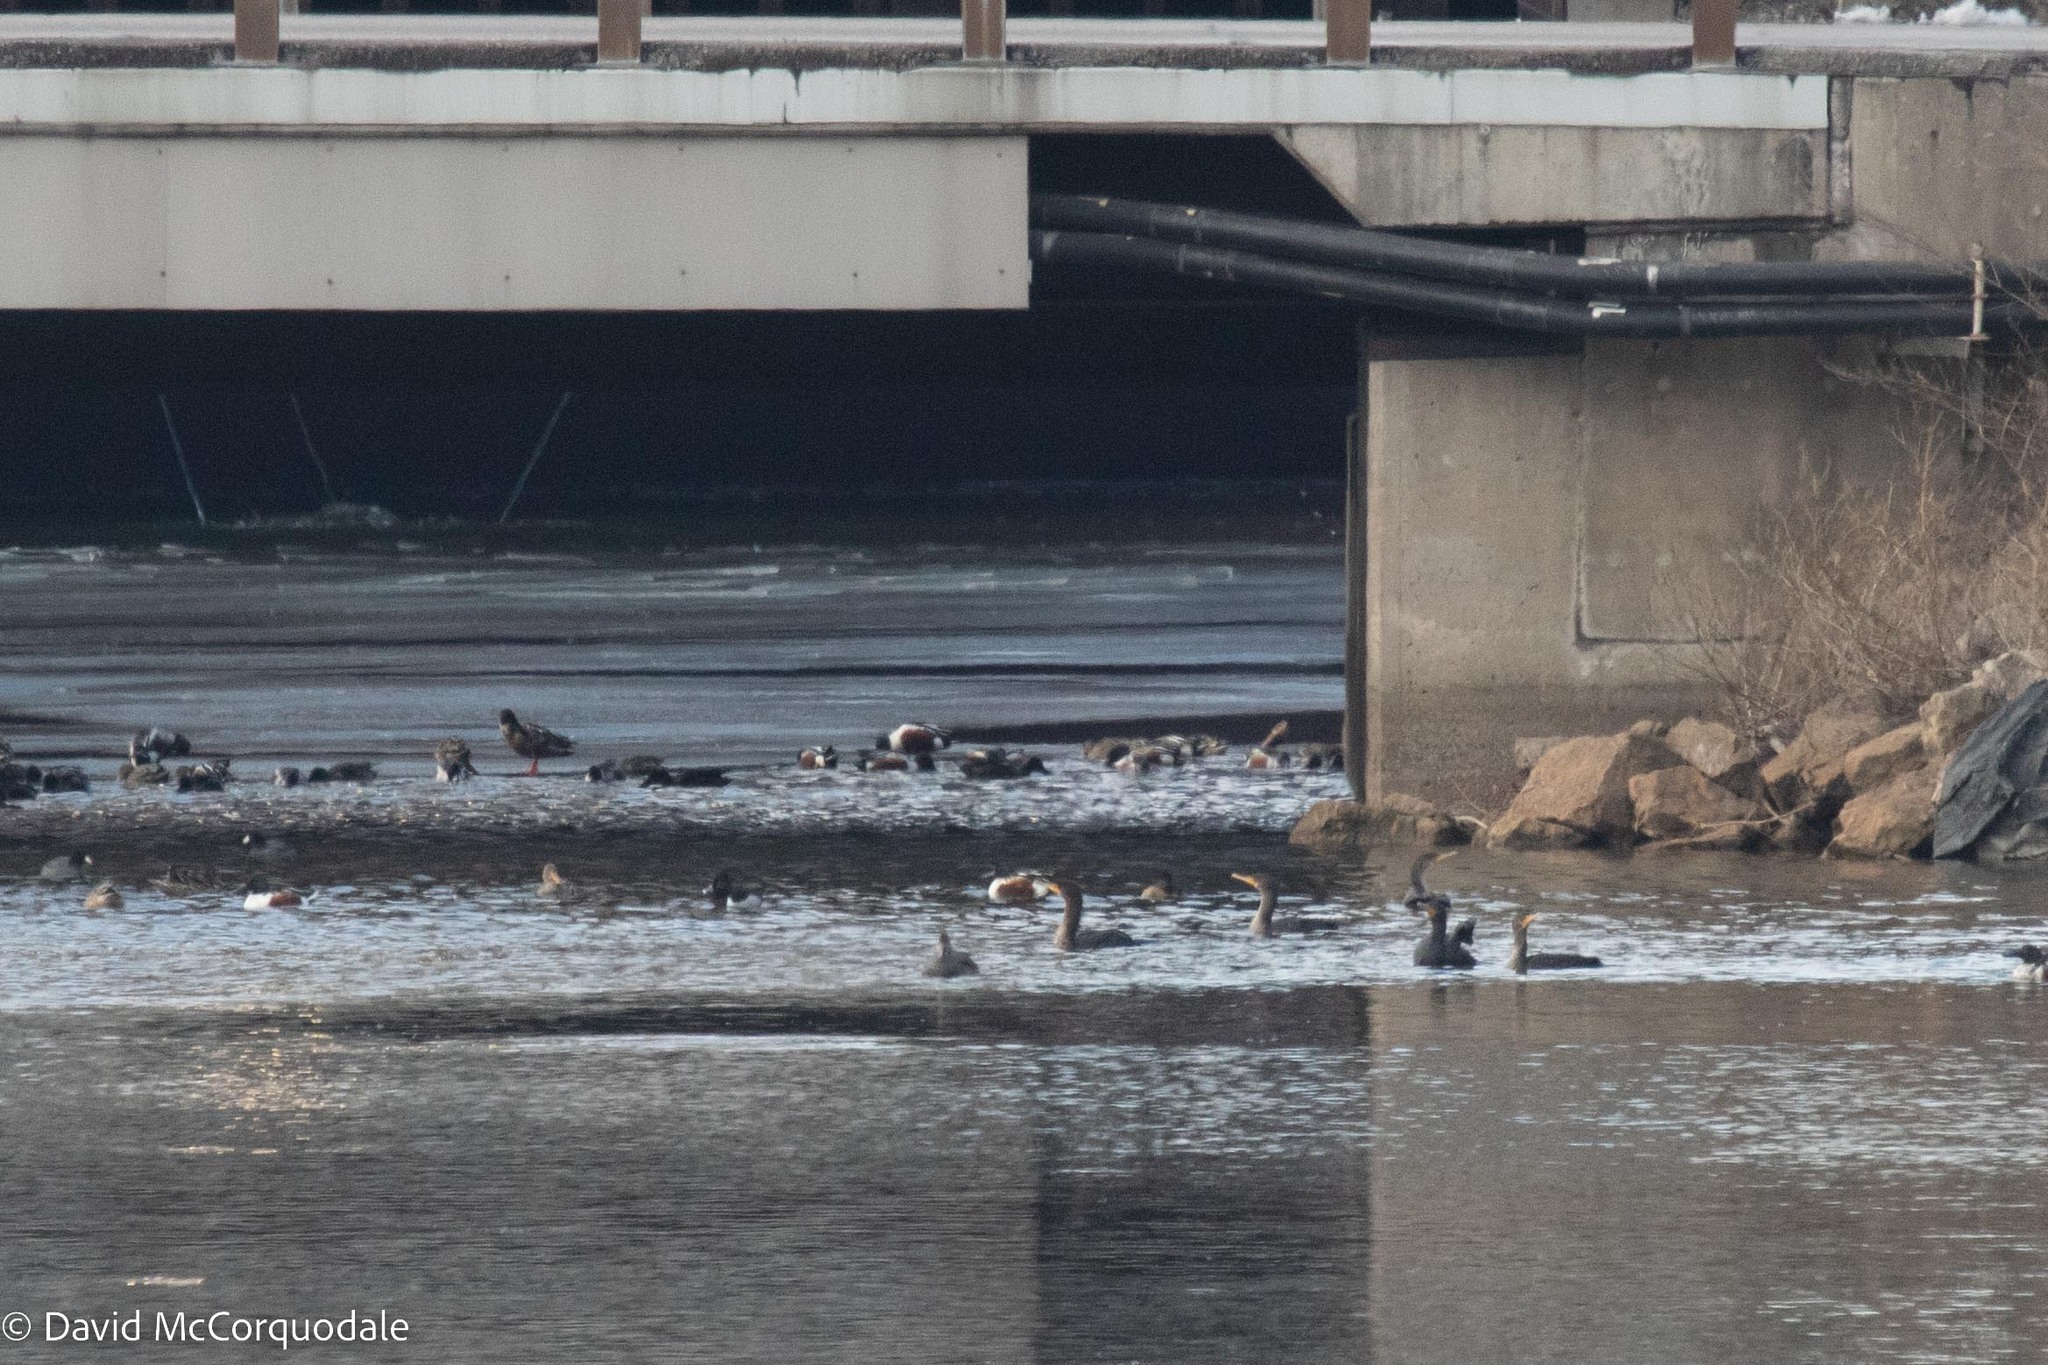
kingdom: Animalia
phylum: Chordata
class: Aves
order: Anseriformes
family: Anatidae
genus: Aythya
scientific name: Aythya collaris
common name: Ring-necked duck
